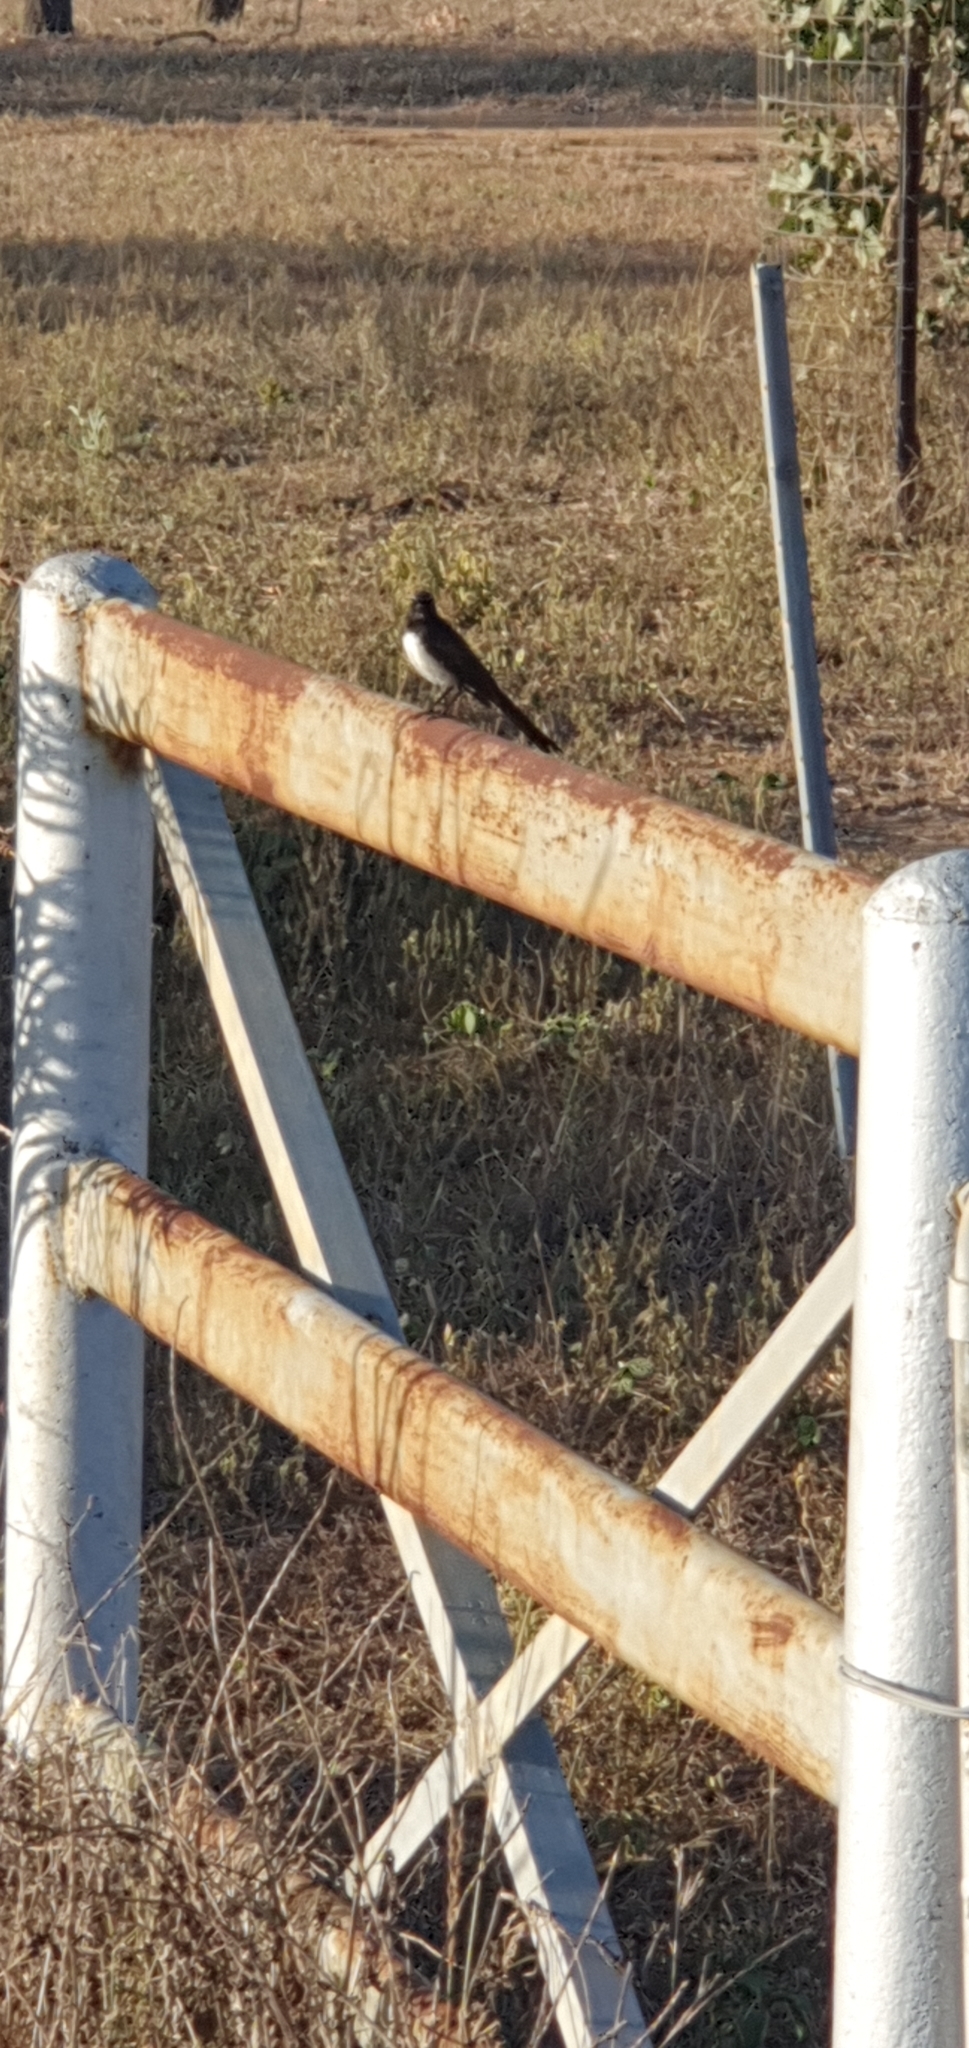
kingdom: Animalia
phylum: Chordata
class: Aves
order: Passeriformes
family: Rhipiduridae
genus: Rhipidura
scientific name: Rhipidura leucophrys
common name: Willie wagtail
